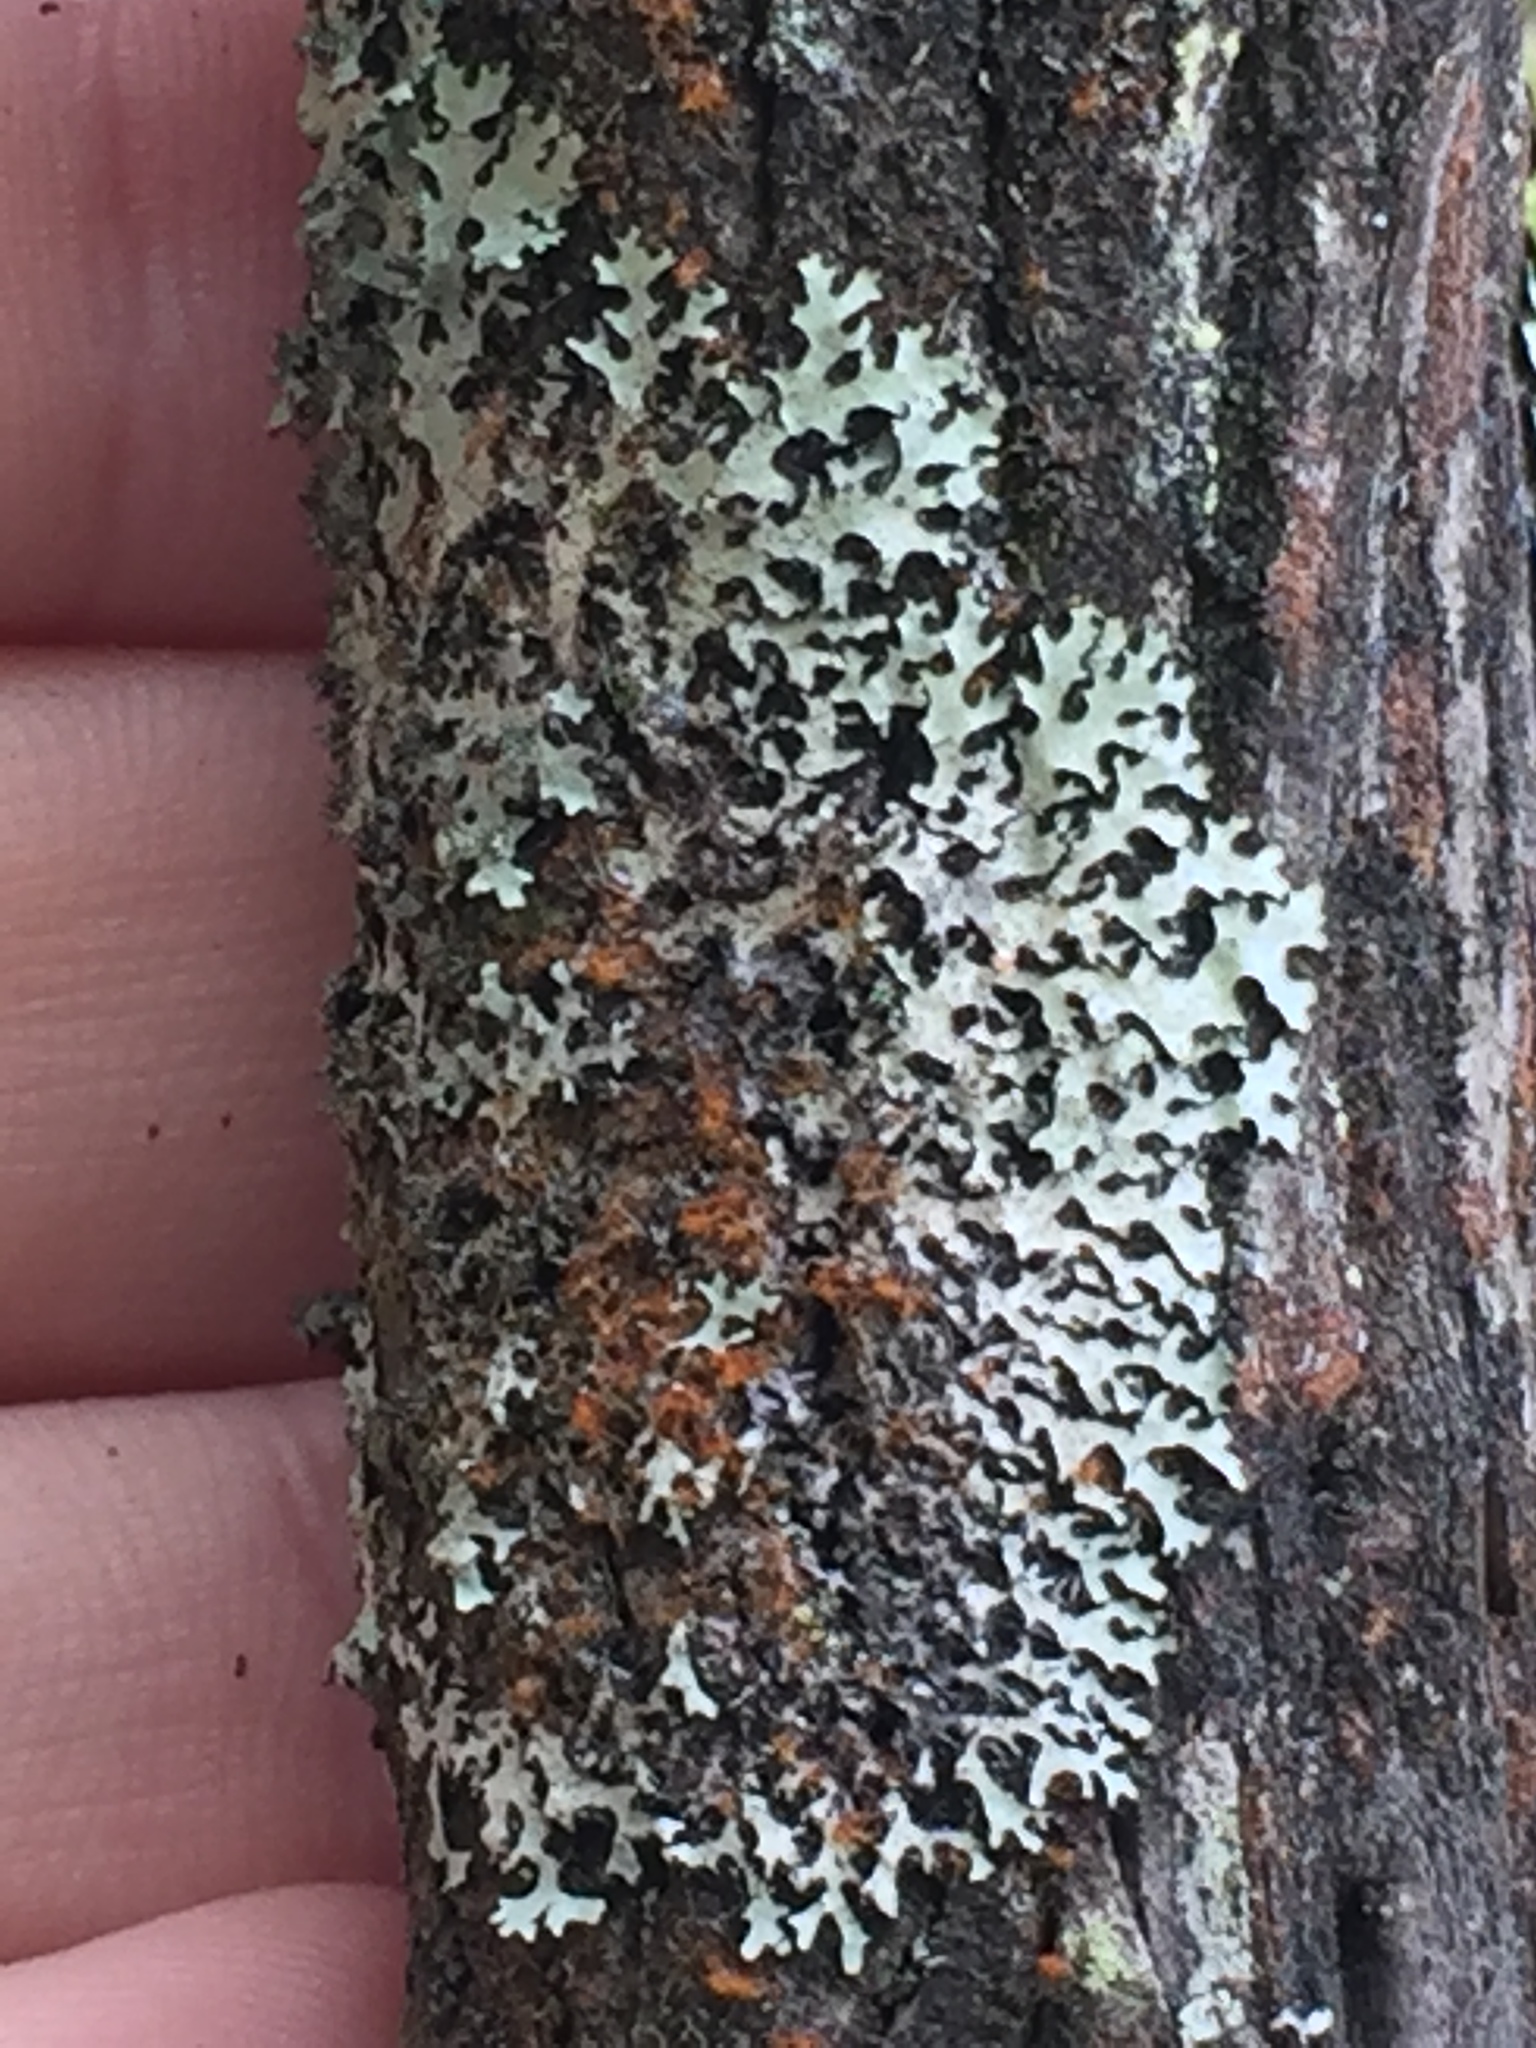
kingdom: Fungi
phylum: Ascomycota
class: Lecanoromycetes
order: Lecanorales
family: Parmeliaceae
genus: Hypotrachyna
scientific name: Hypotrachyna horrescens
